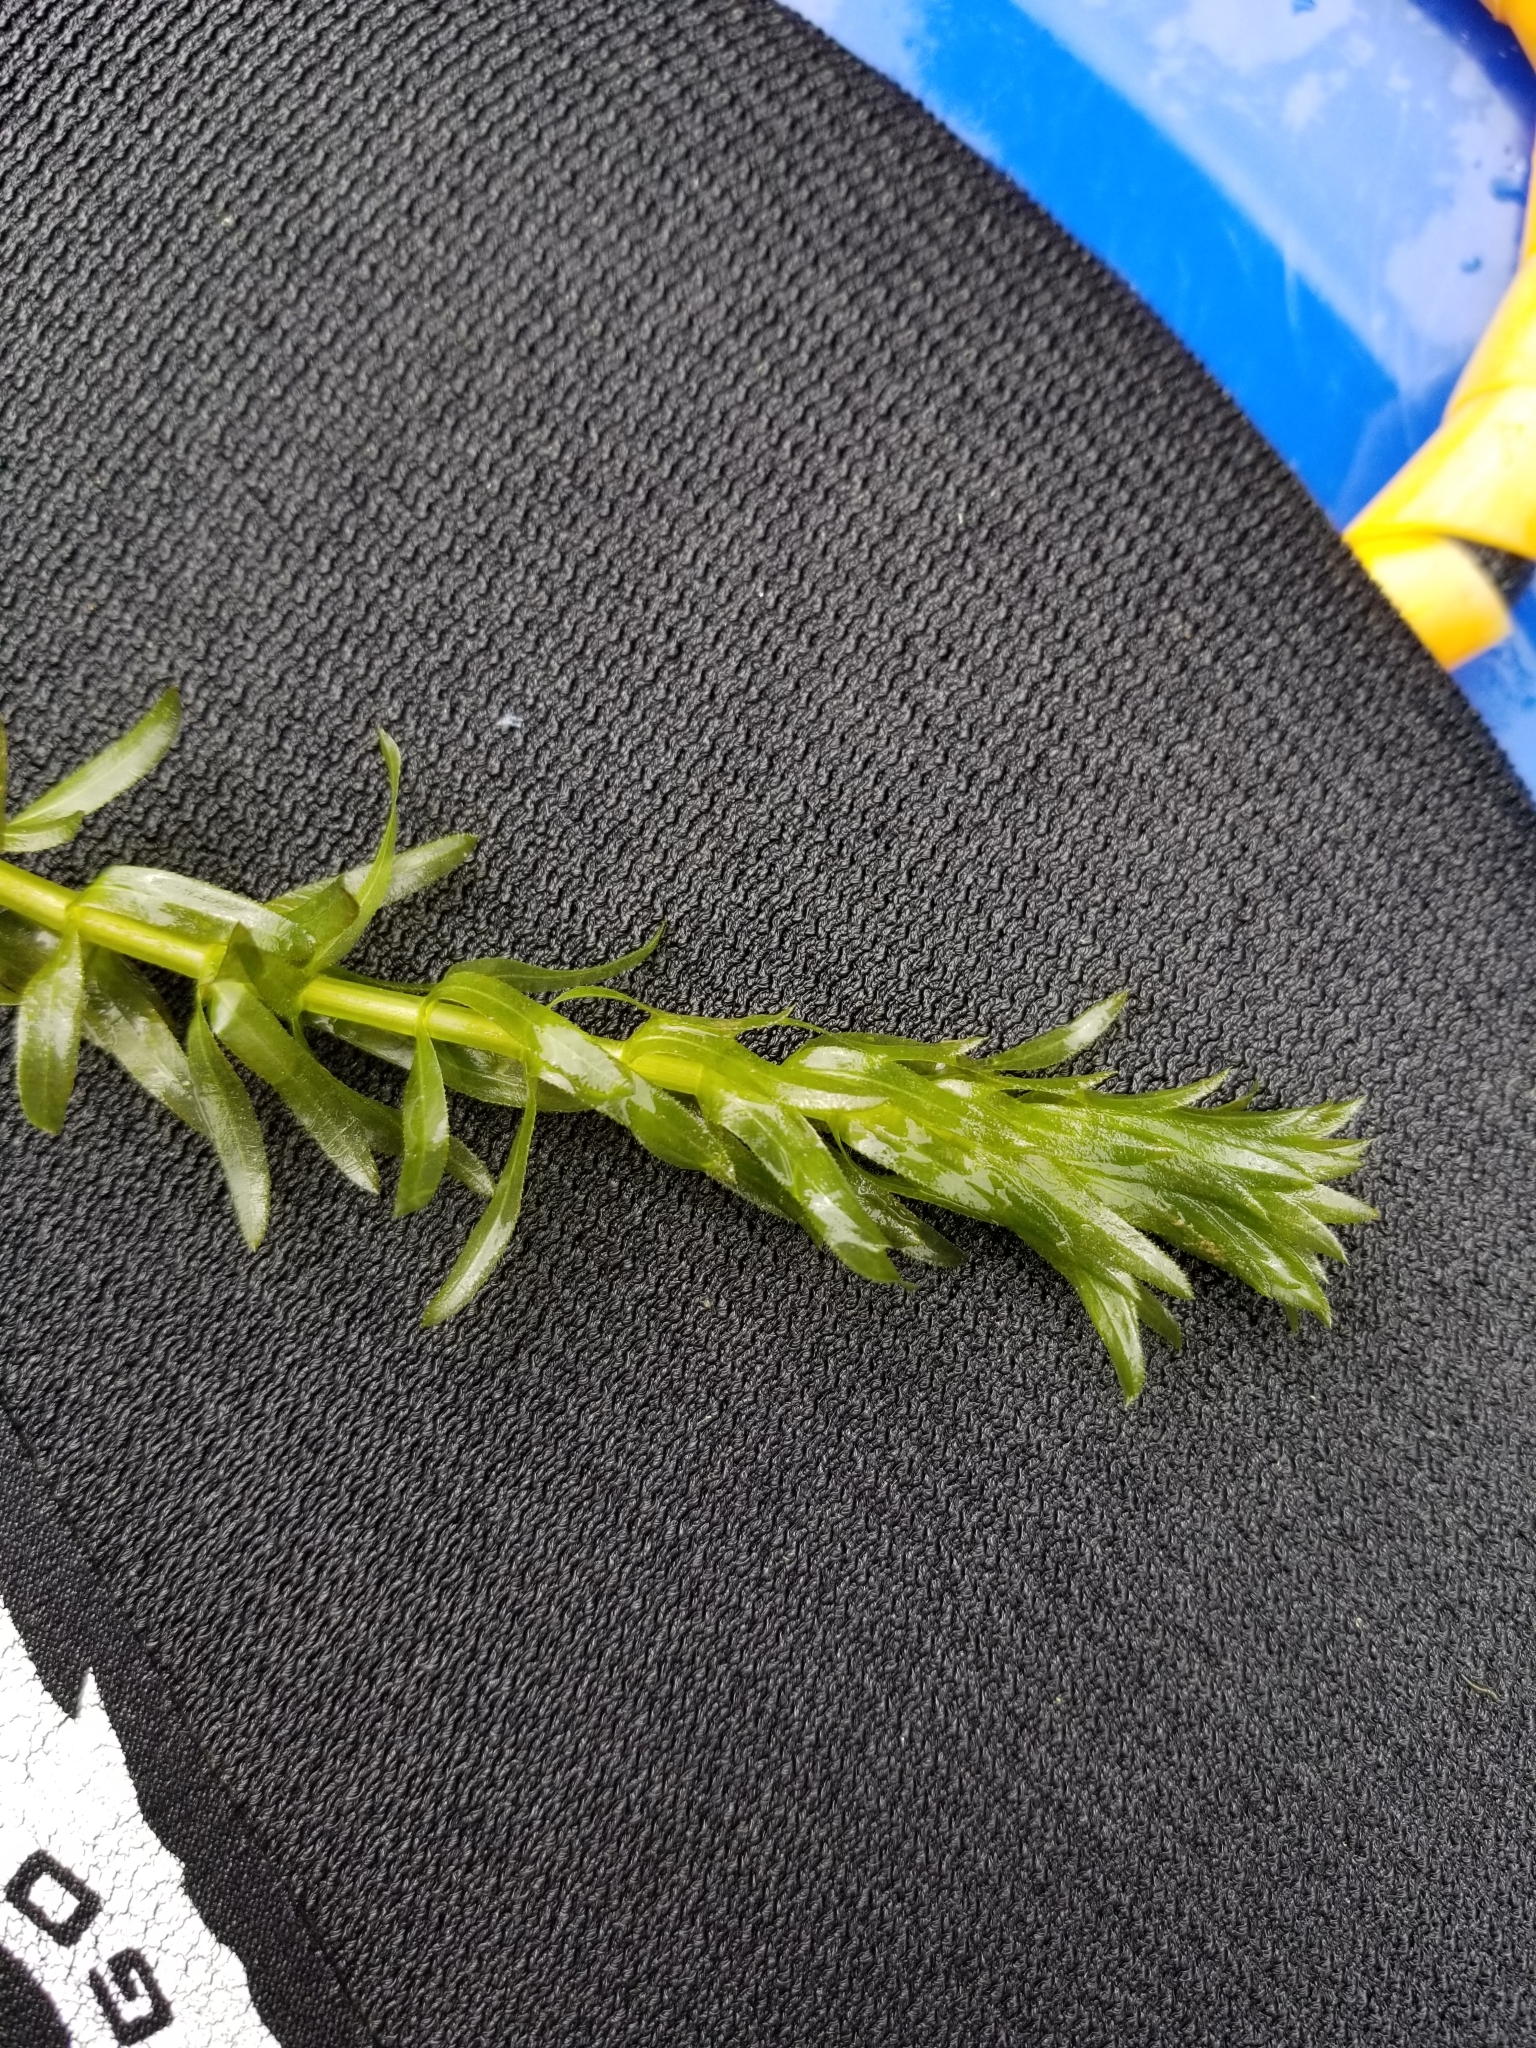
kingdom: Plantae
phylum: Tracheophyta
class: Liliopsida
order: Alismatales
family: Hydrocharitaceae
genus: Elodea
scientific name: Elodea densa
